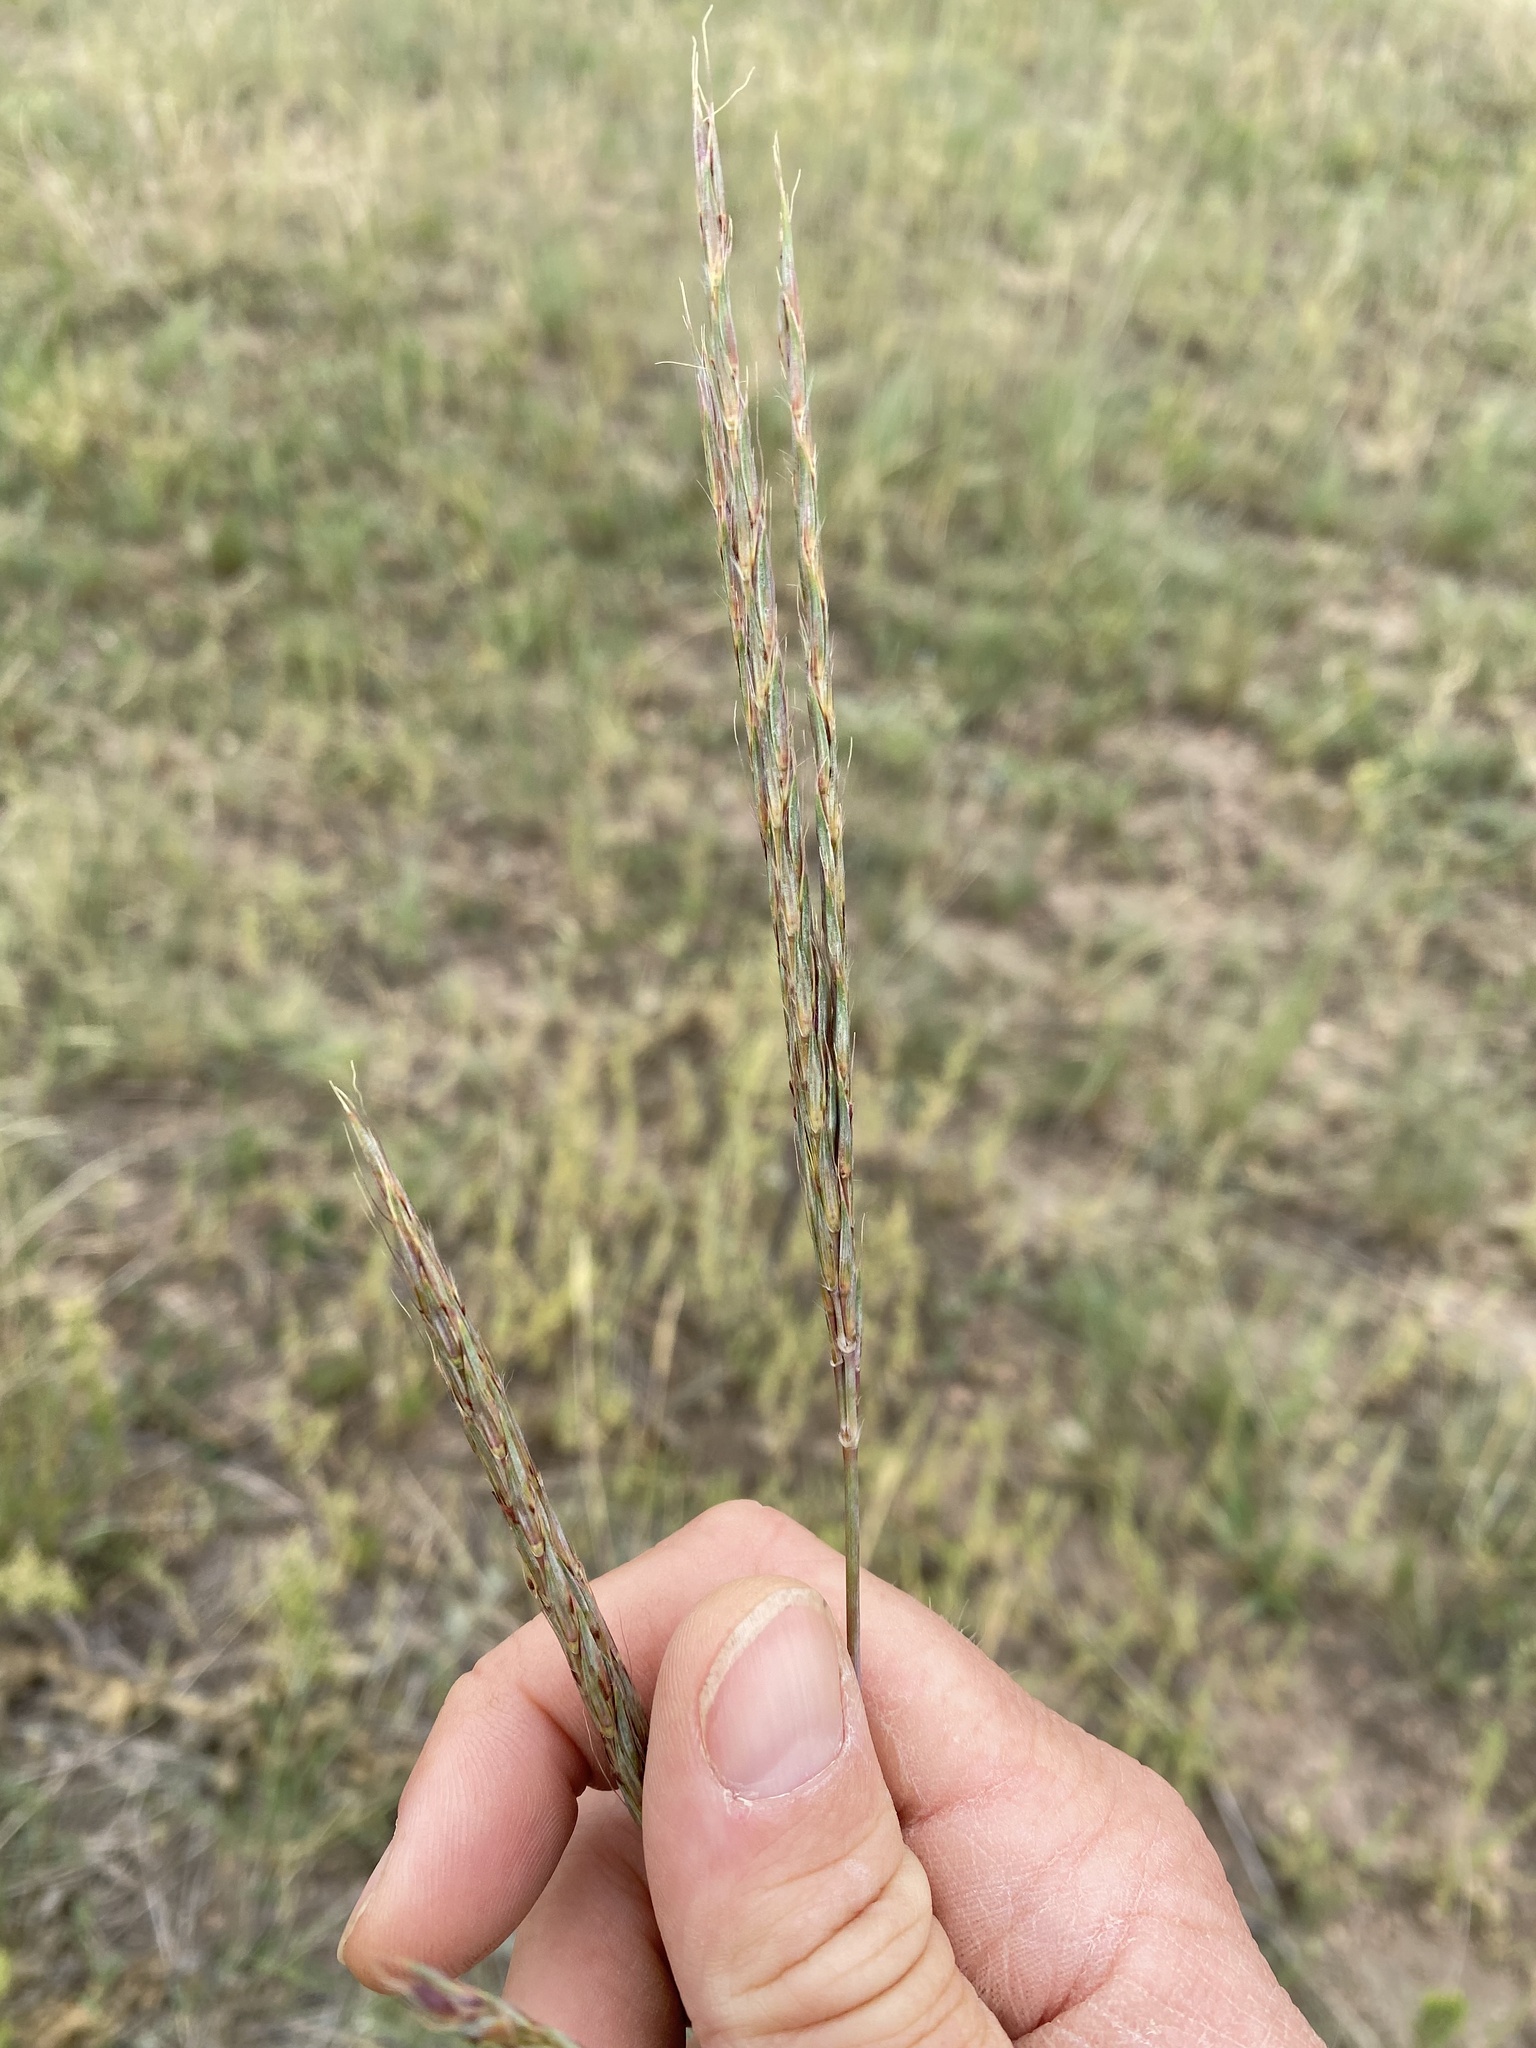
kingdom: Plantae
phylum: Tracheophyta
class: Liliopsida
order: Poales
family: Poaceae
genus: Andropogon
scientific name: Andropogon gerardi
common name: Big bluestem
